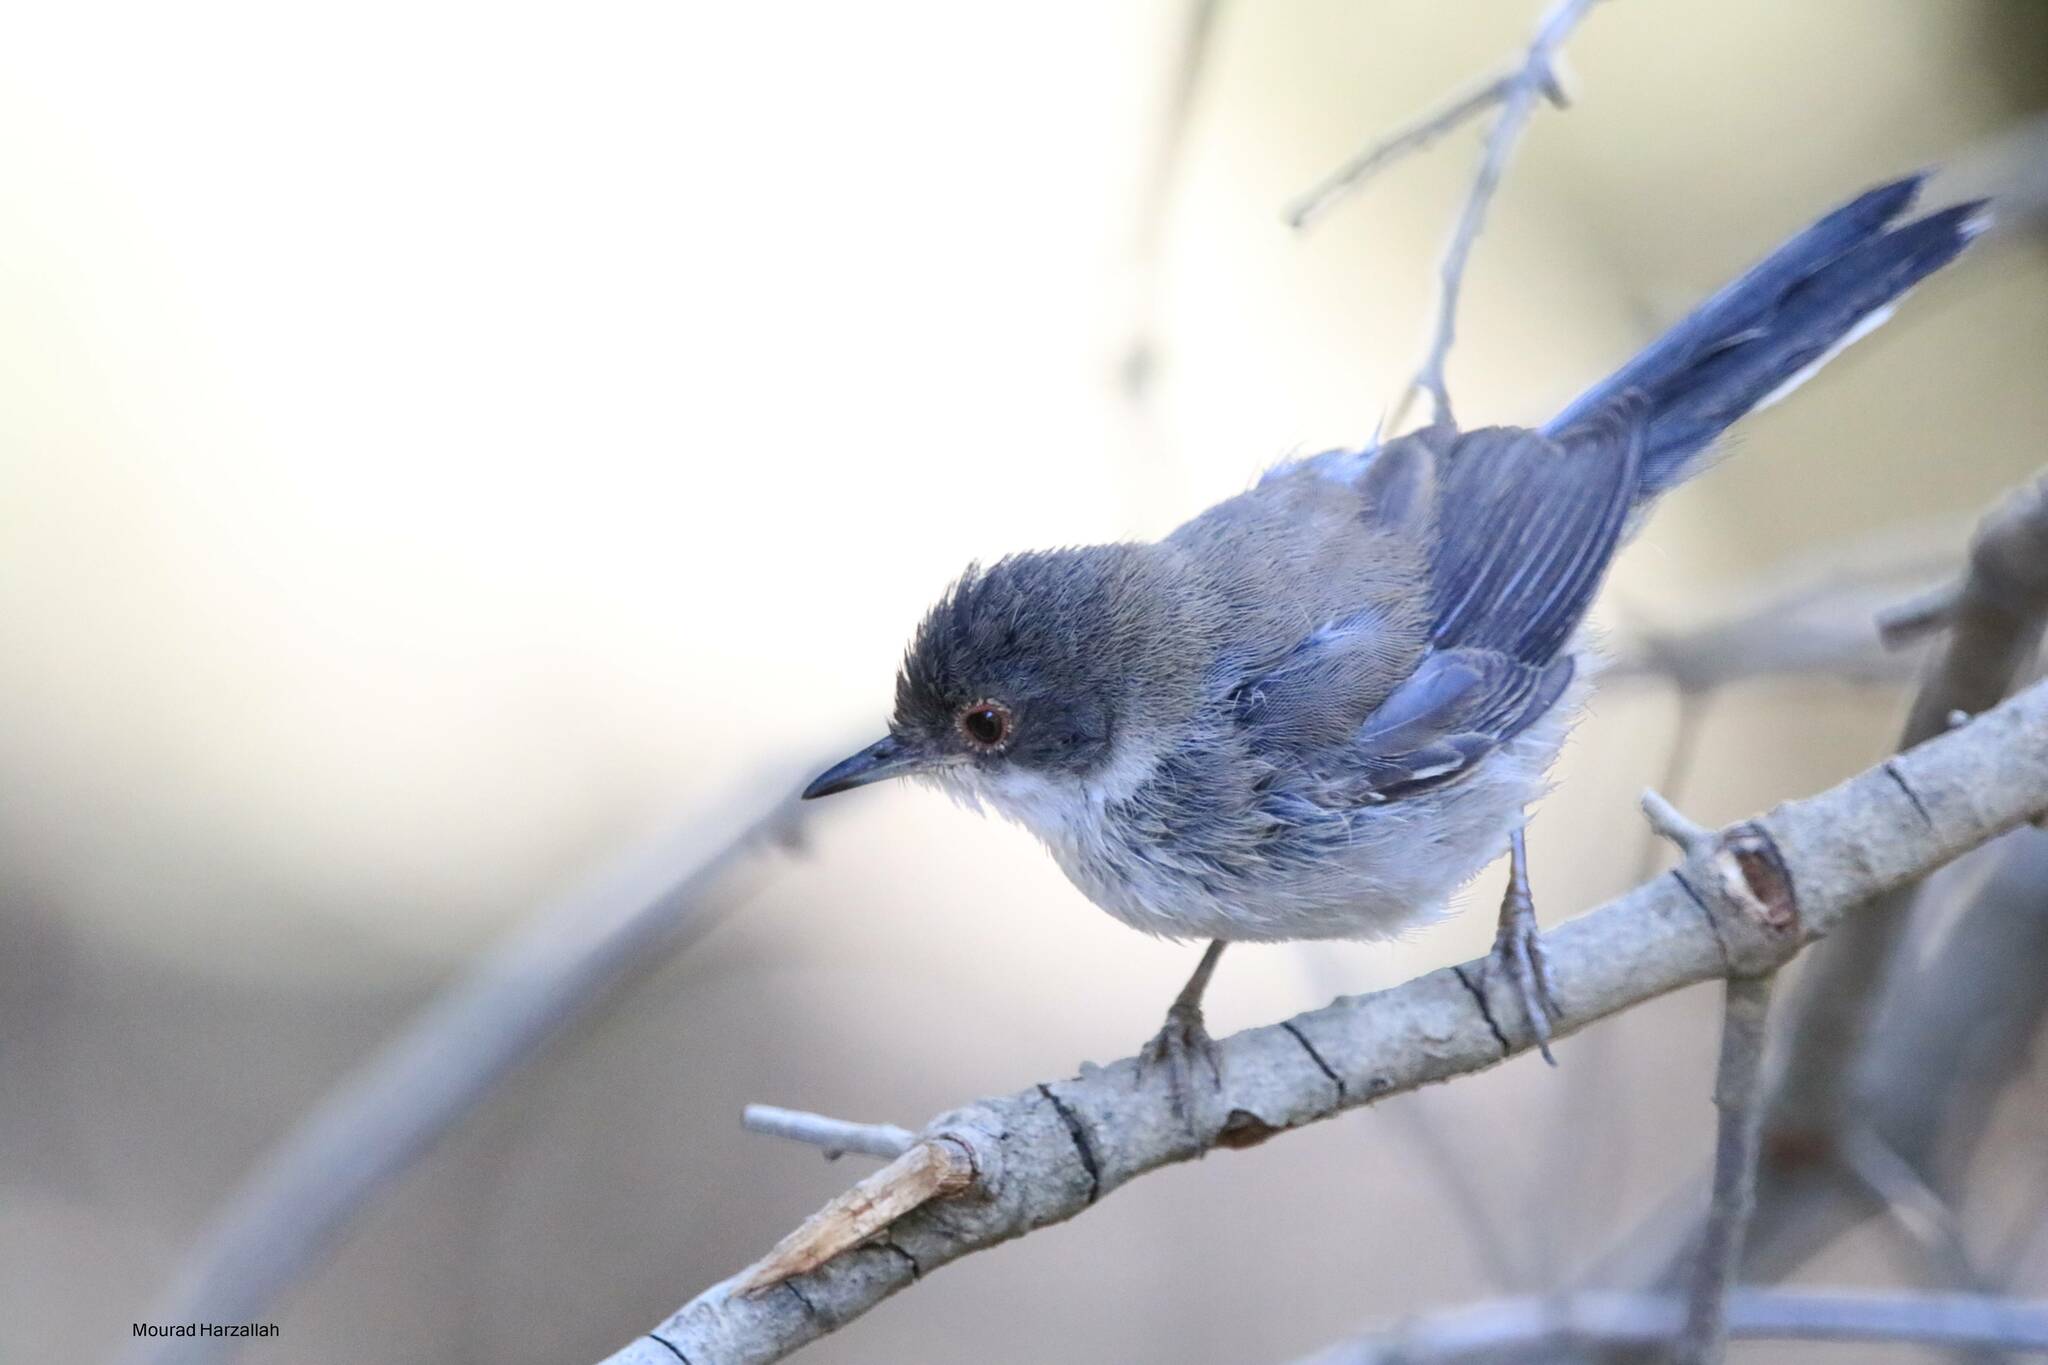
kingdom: Animalia
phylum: Chordata
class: Aves
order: Passeriformes
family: Sylviidae
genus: Curruca
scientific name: Curruca melanocephala
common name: Sardinian warbler
